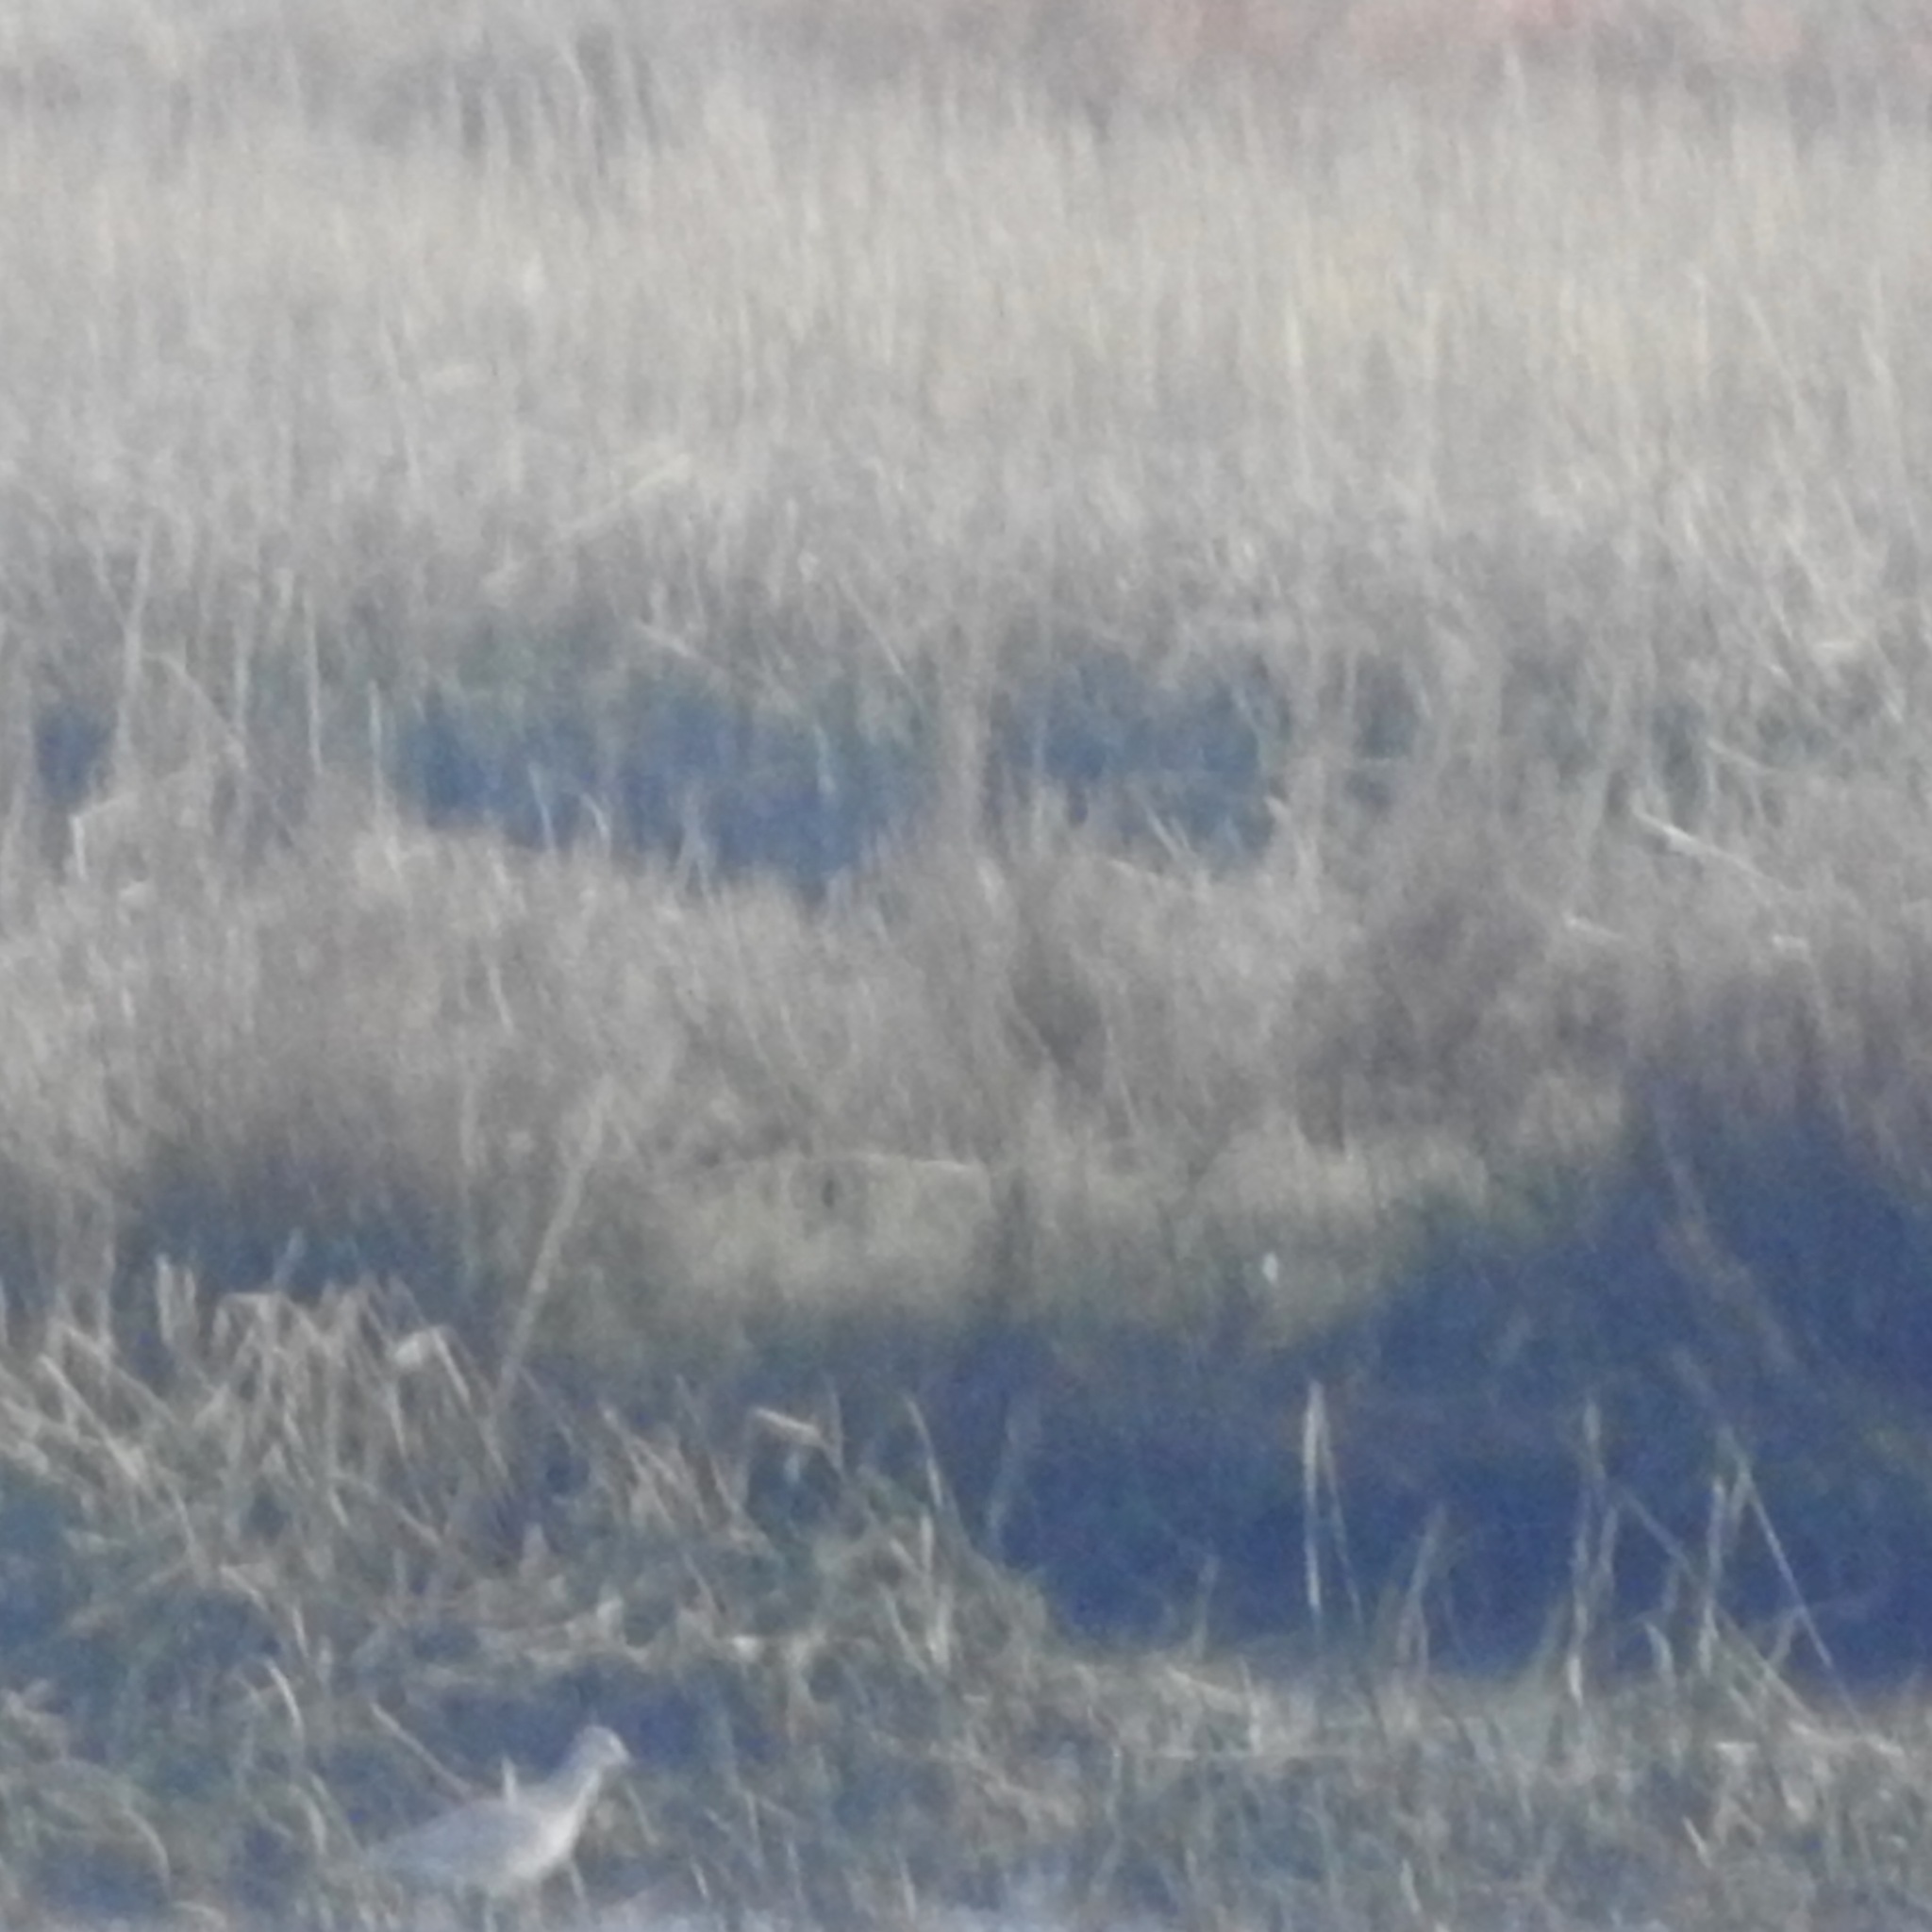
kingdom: Animalia
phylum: Chordata
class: Aves
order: Charadriiformes
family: Scolopacidae
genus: Tringa
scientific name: Tringa semipalmata
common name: Willet
